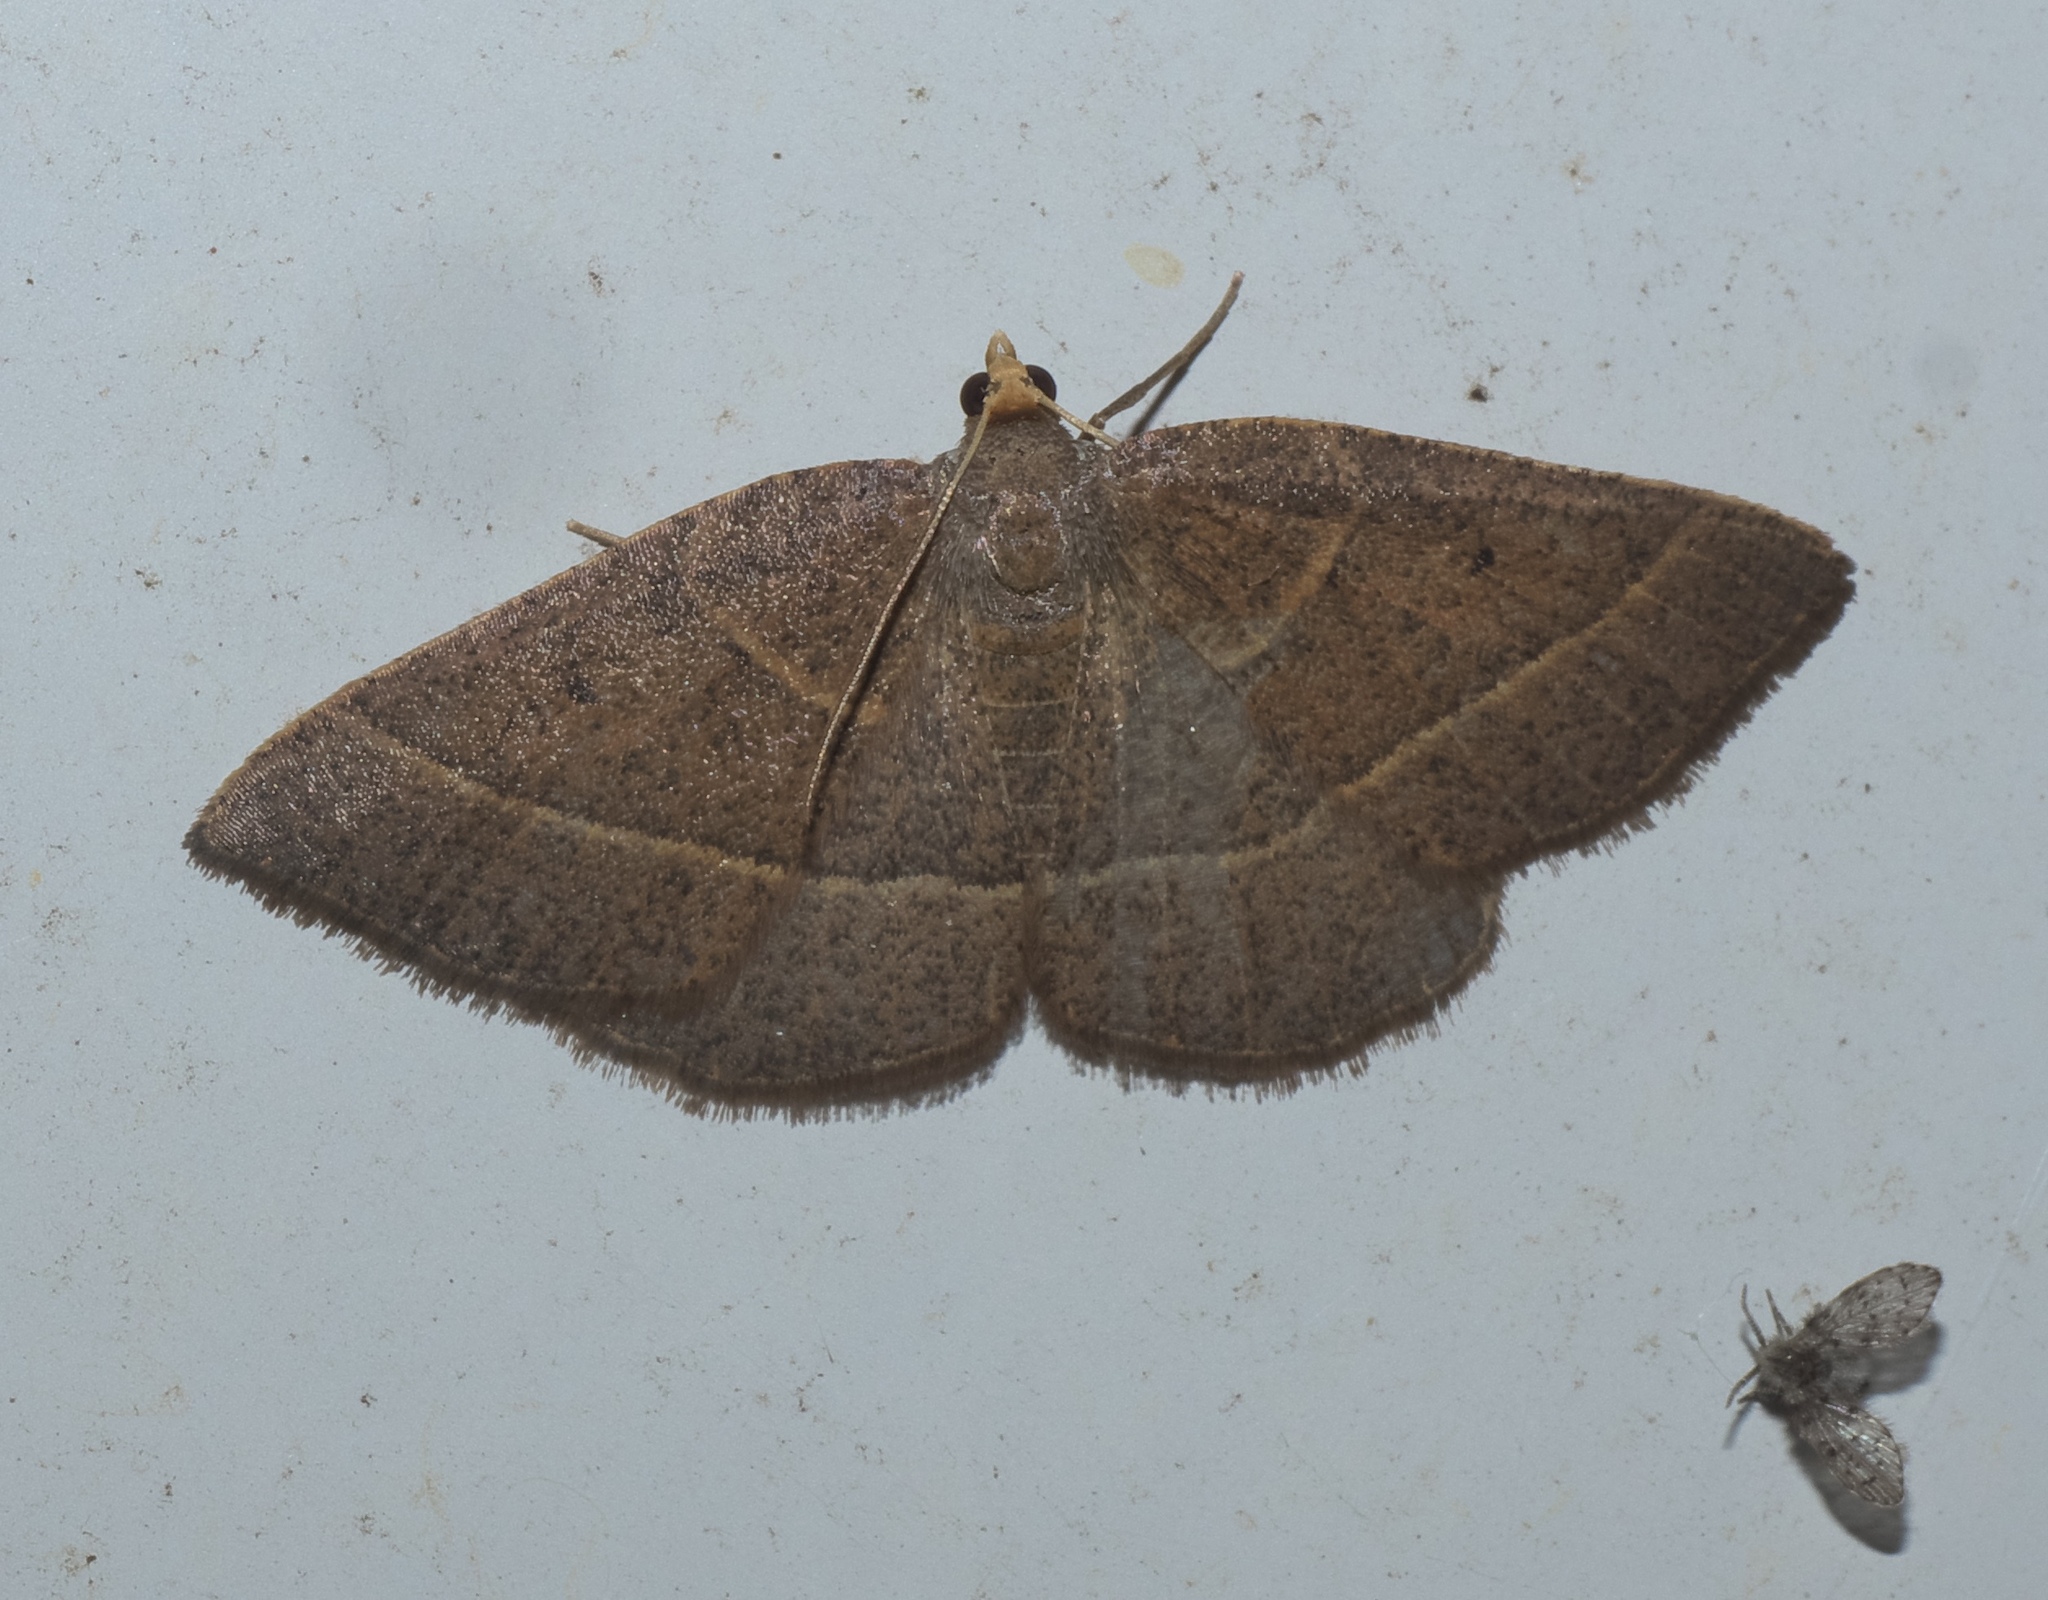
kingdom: Animalia
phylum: Arthropoda
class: Insecta
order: Lepidoptera
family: Geometridae
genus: Episemasia
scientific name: Episemasia cervinaria
